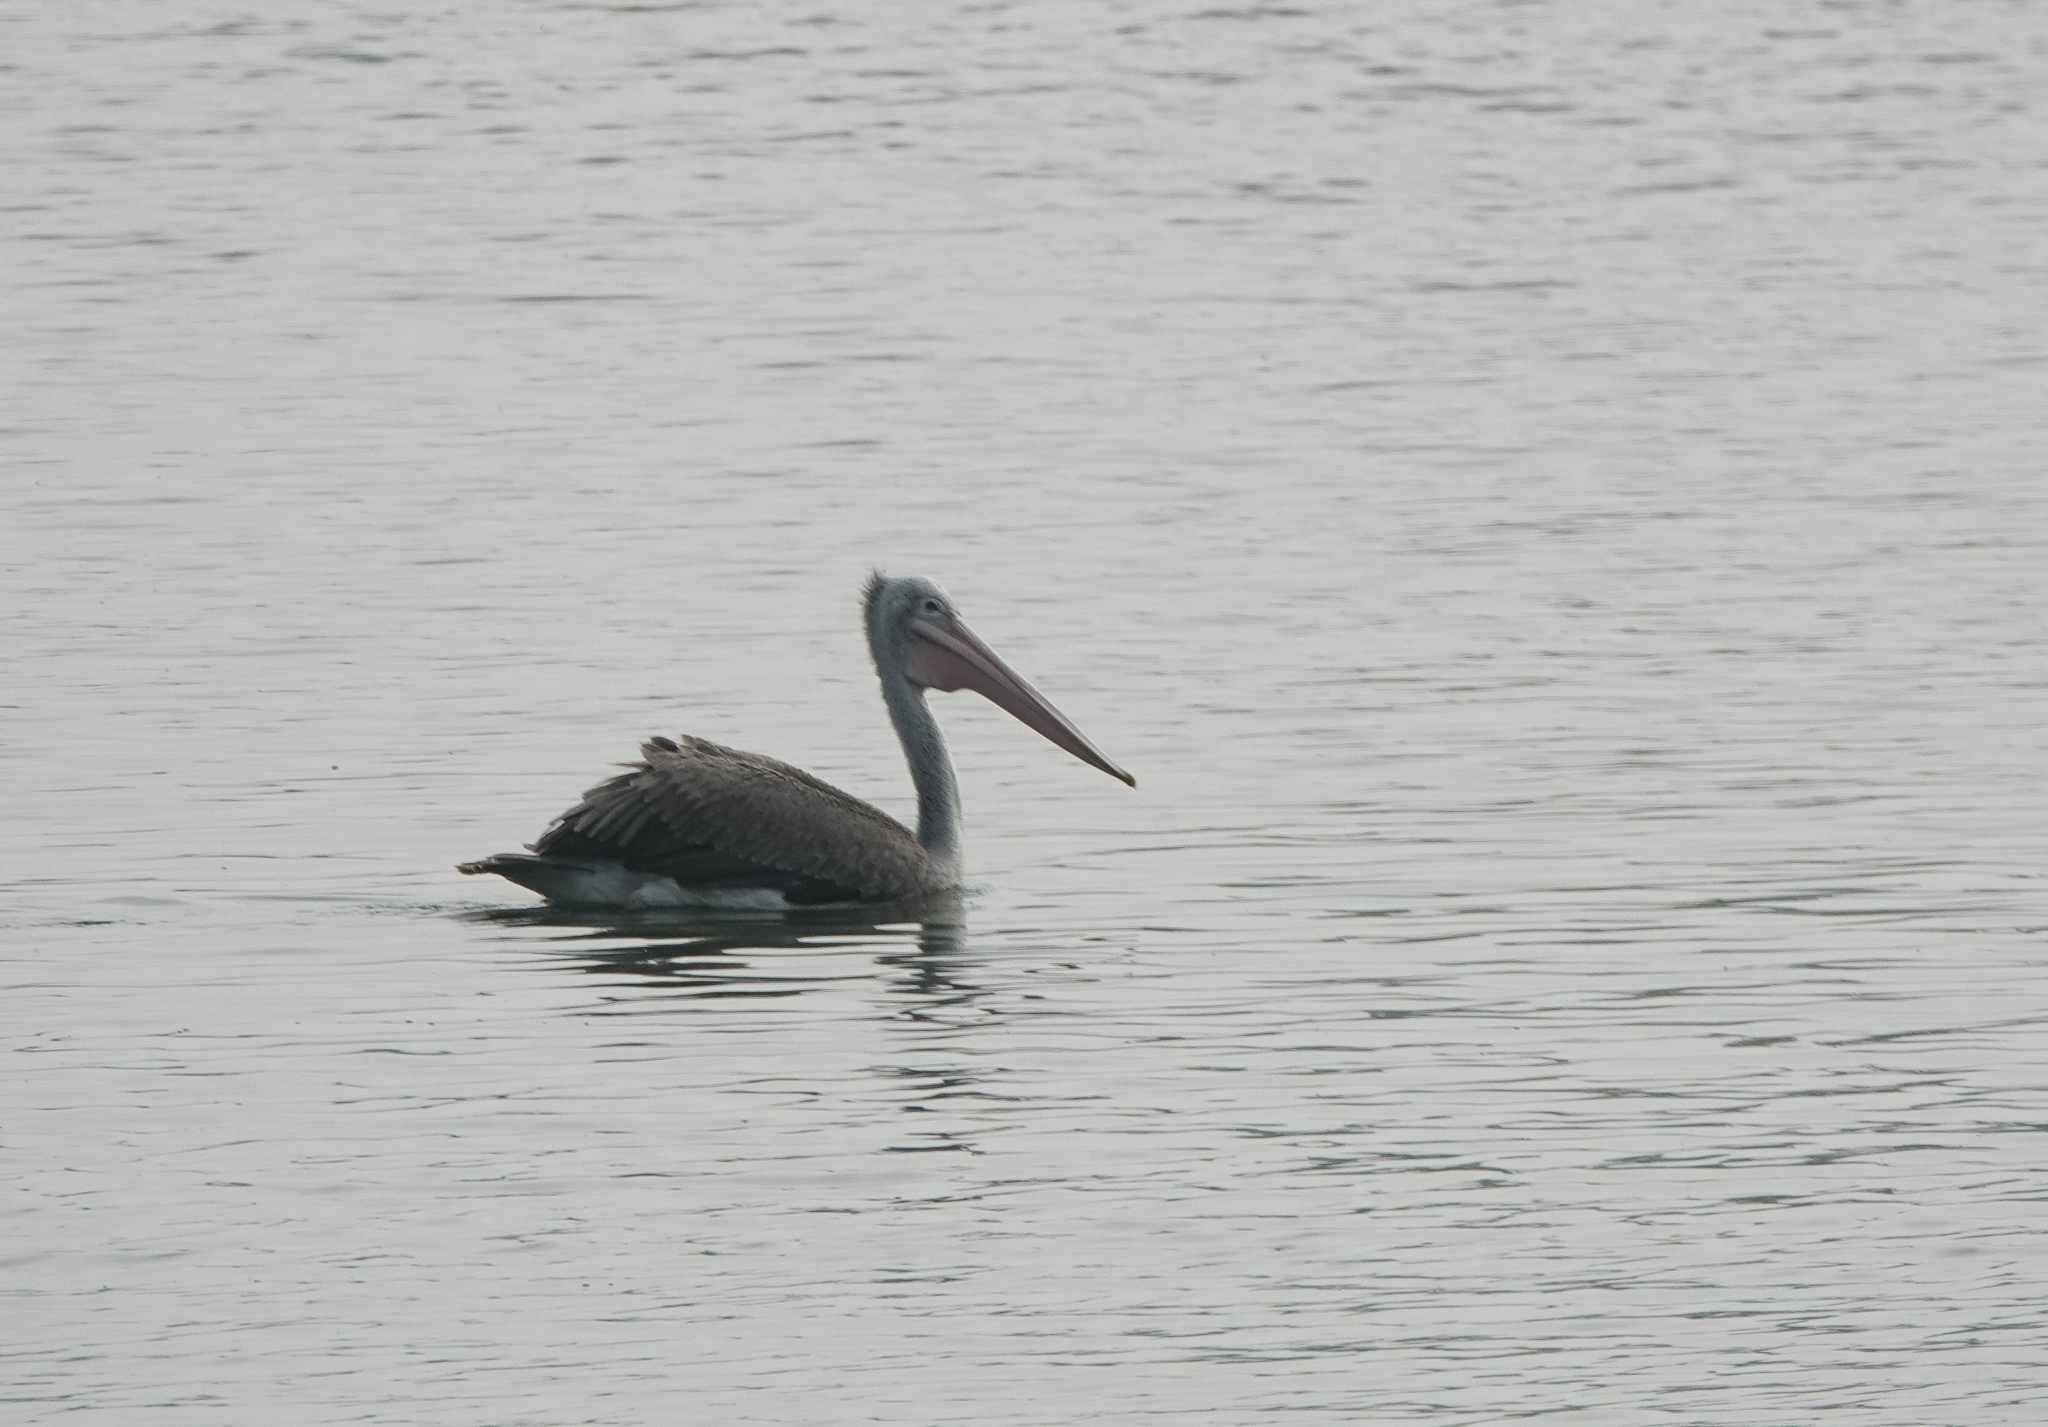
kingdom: Animalia
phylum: Chordata
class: Aves
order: Pelecaniformes
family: Pelecanidae
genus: Pelecanus
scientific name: Pelecanus philippensis
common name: Spot-billed pelican
